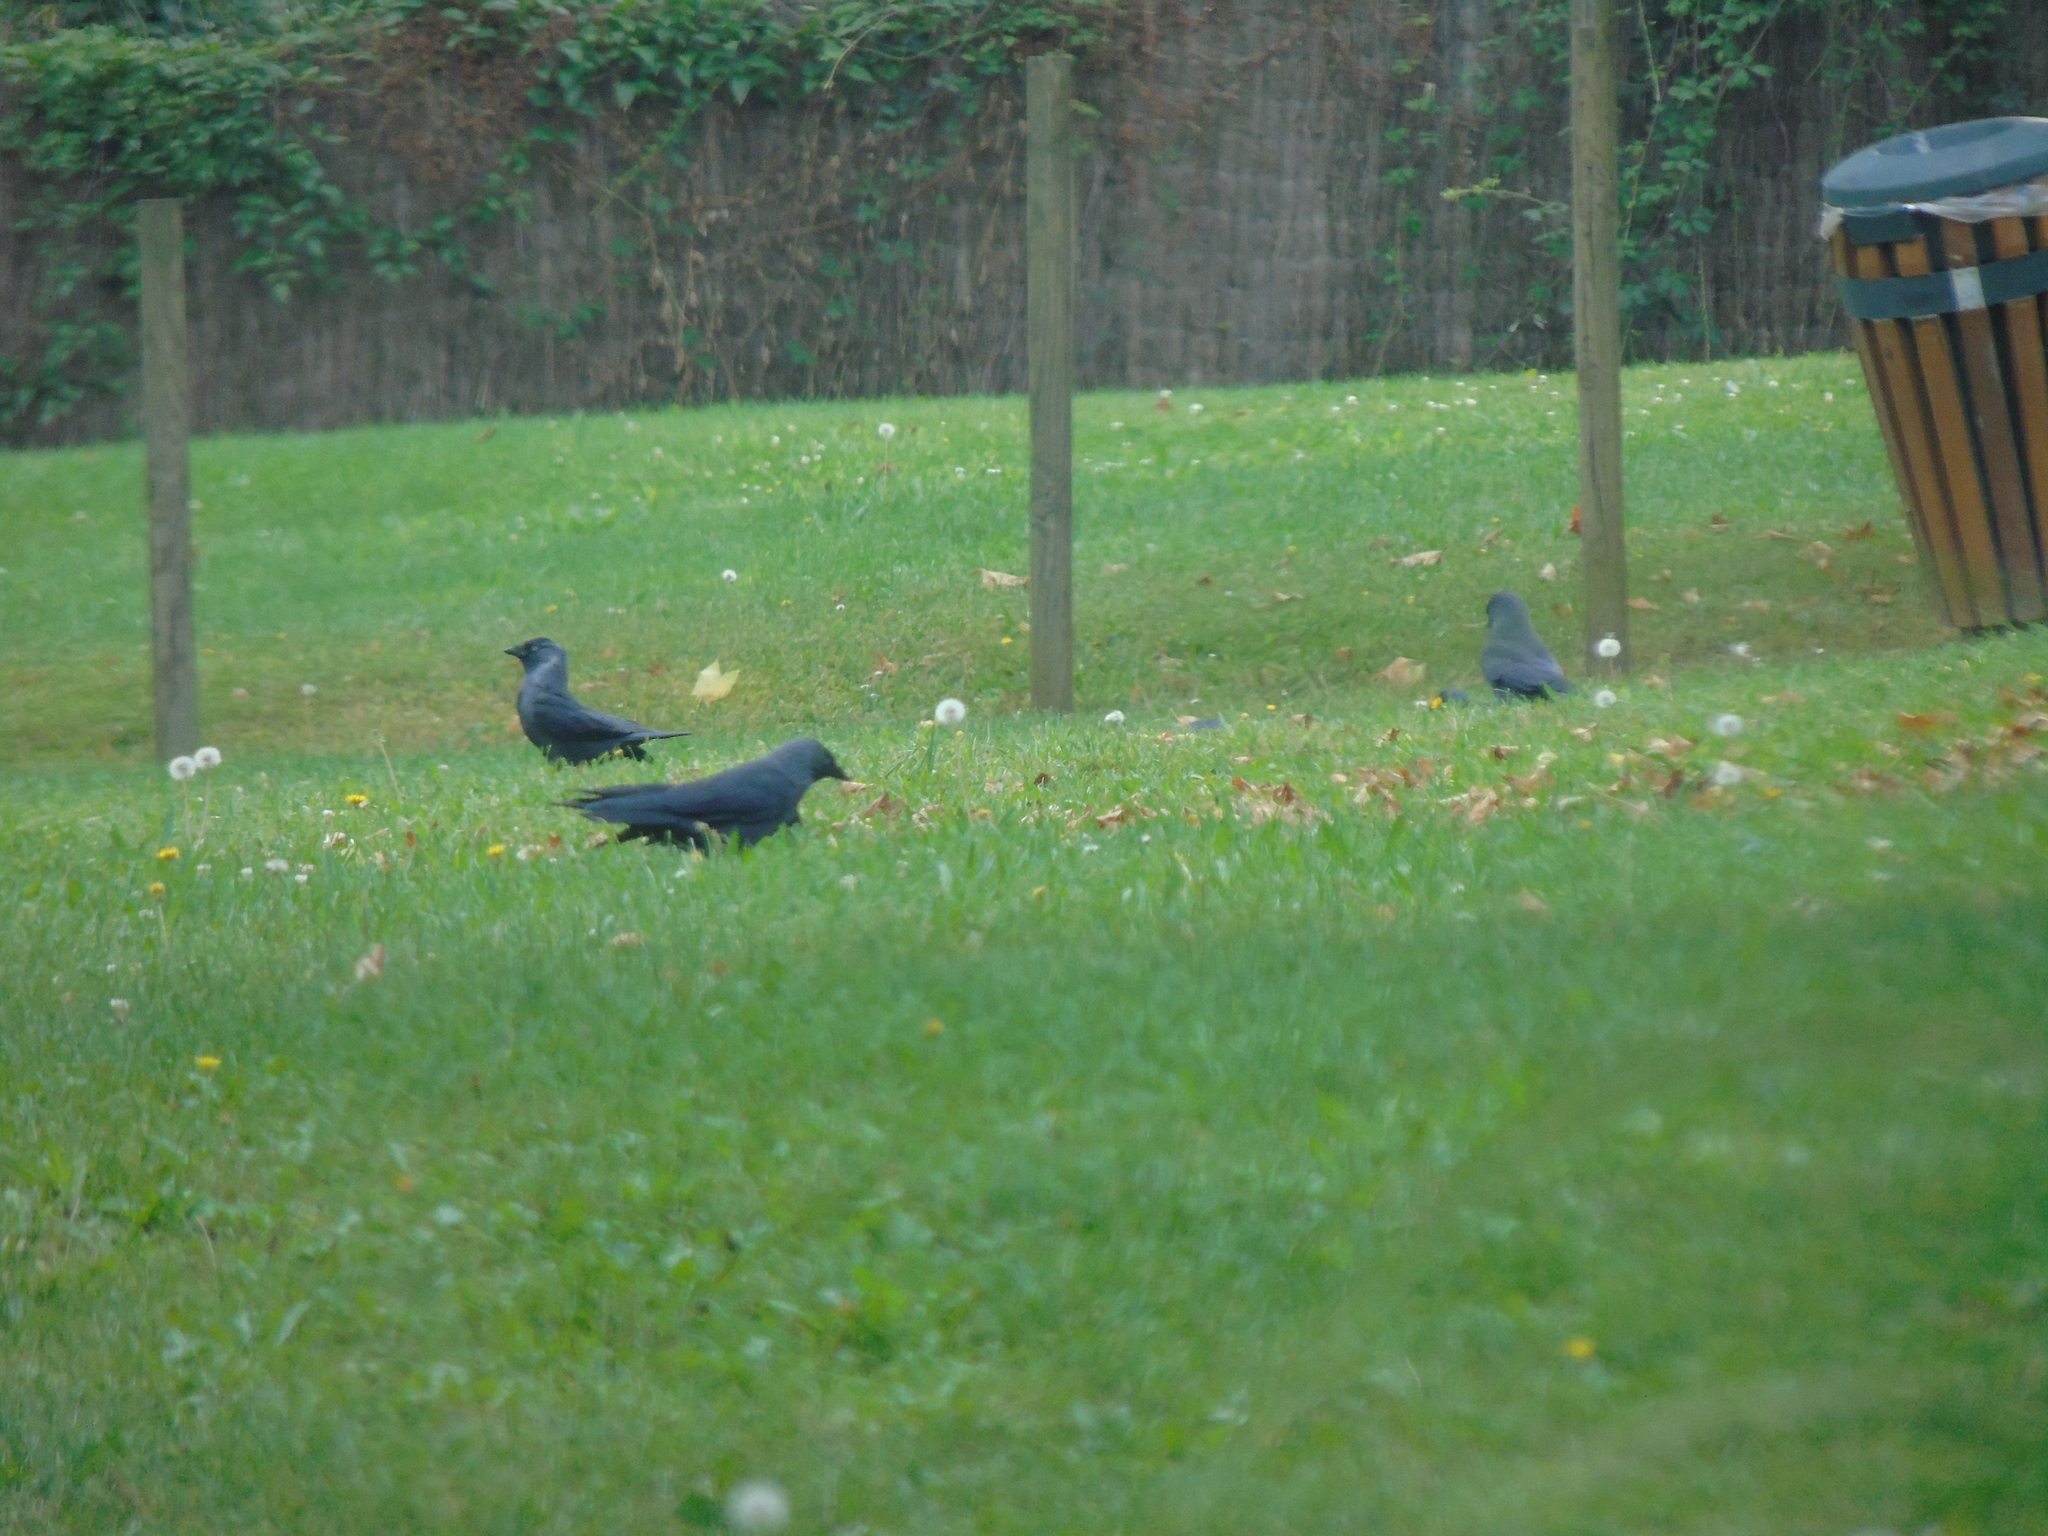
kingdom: Animalia
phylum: Chordata
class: Aves
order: Passeriformes
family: Corvidae
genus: Coloeus
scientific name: Coloeus monedula
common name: Western jackdaw
